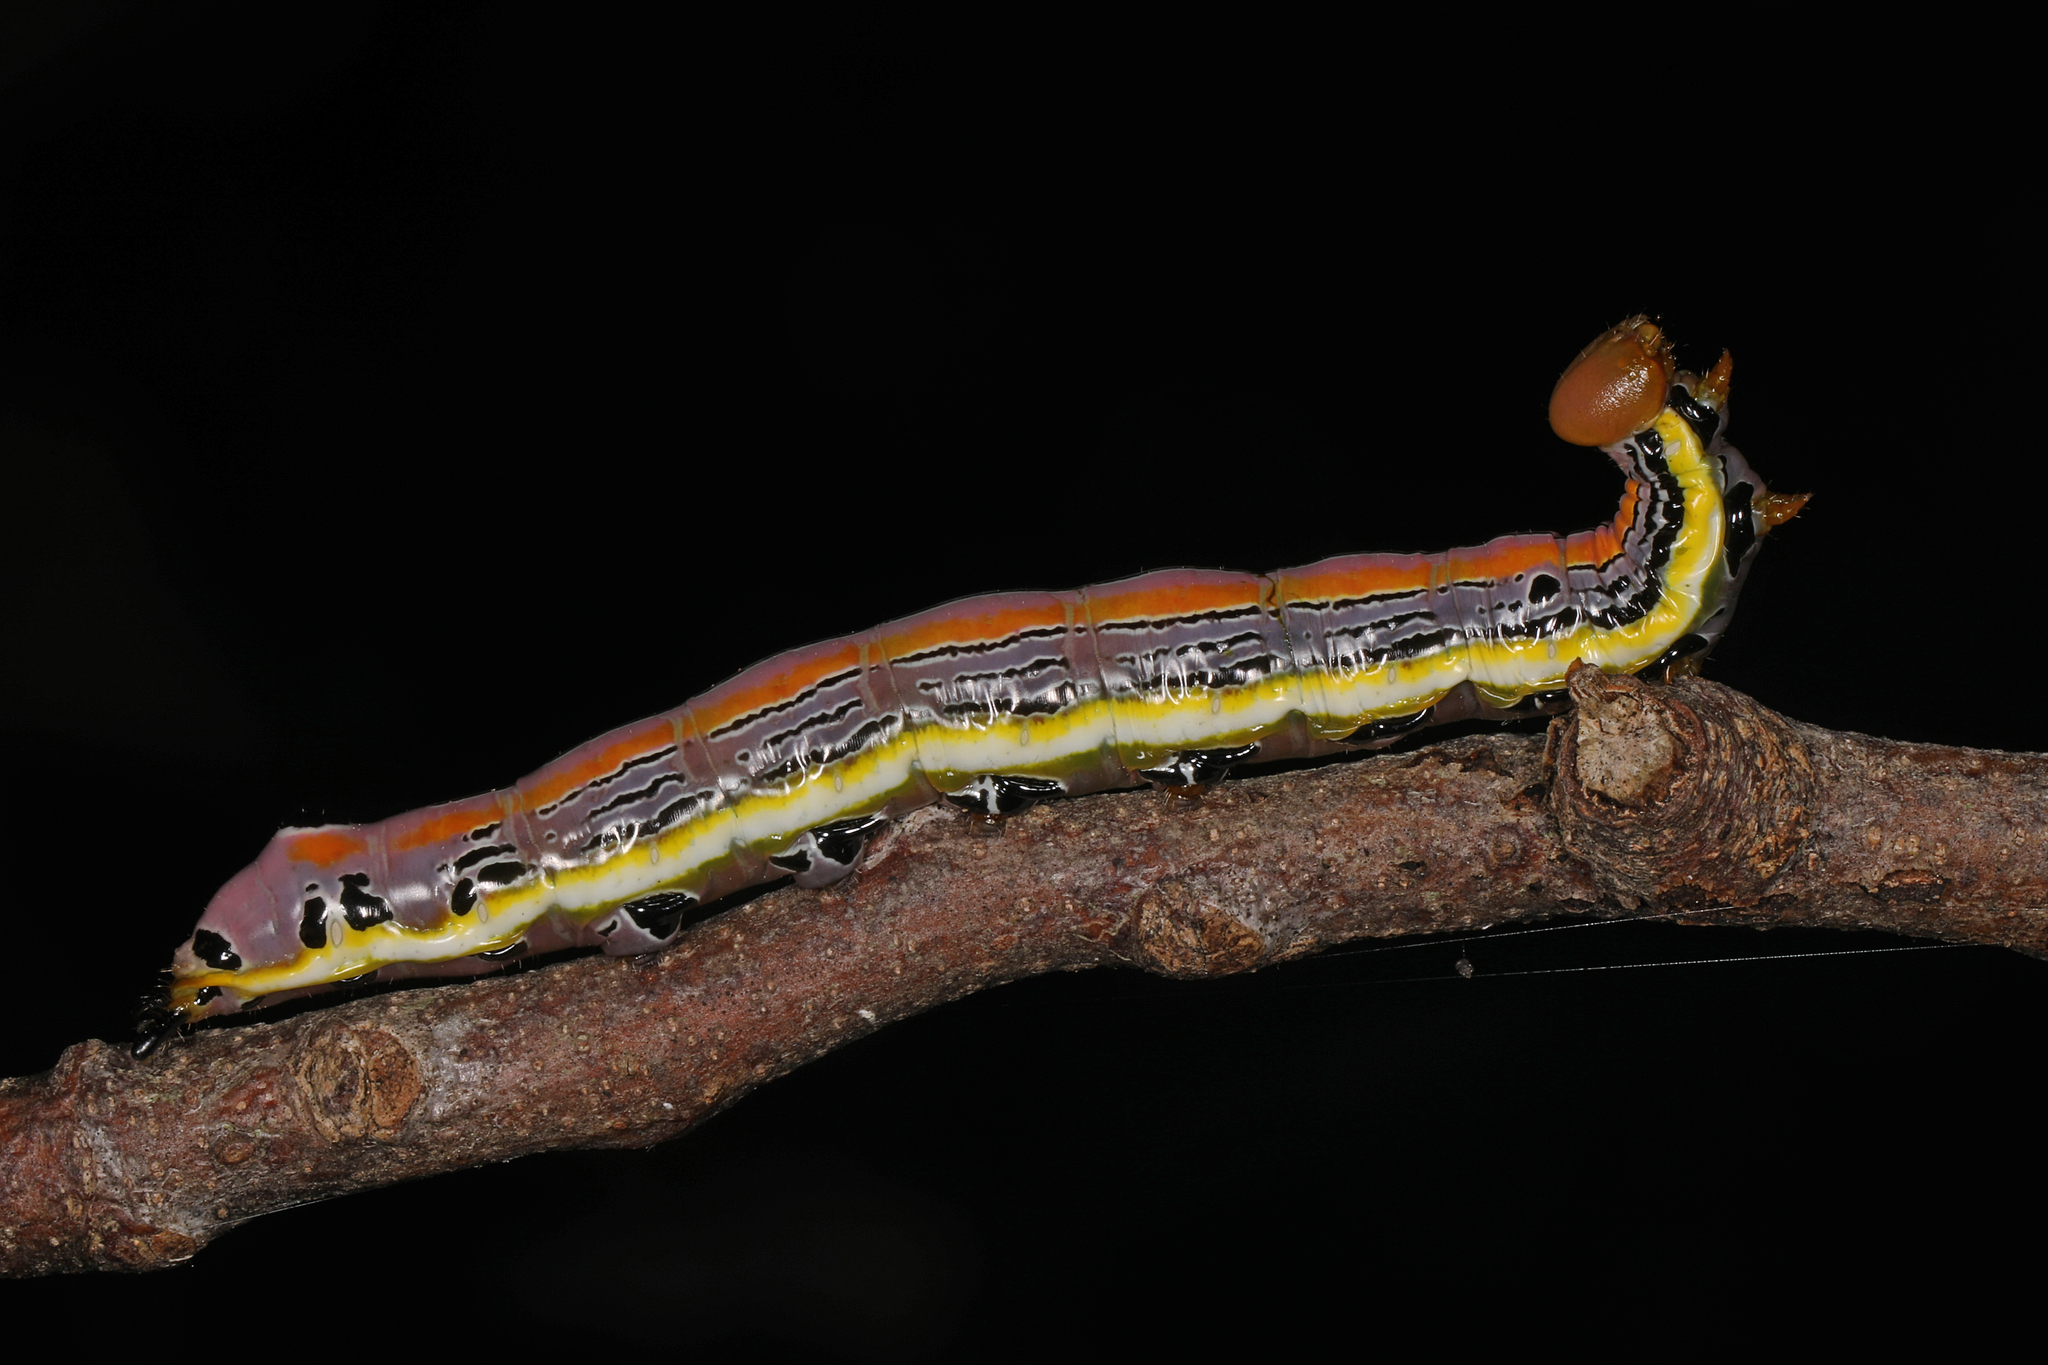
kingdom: Animalia
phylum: Arthropoda
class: Insecta
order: Lepidoptera
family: Notodontidae
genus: Dasylophia
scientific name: Dasylophia anguina
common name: Black-spotted prominent
